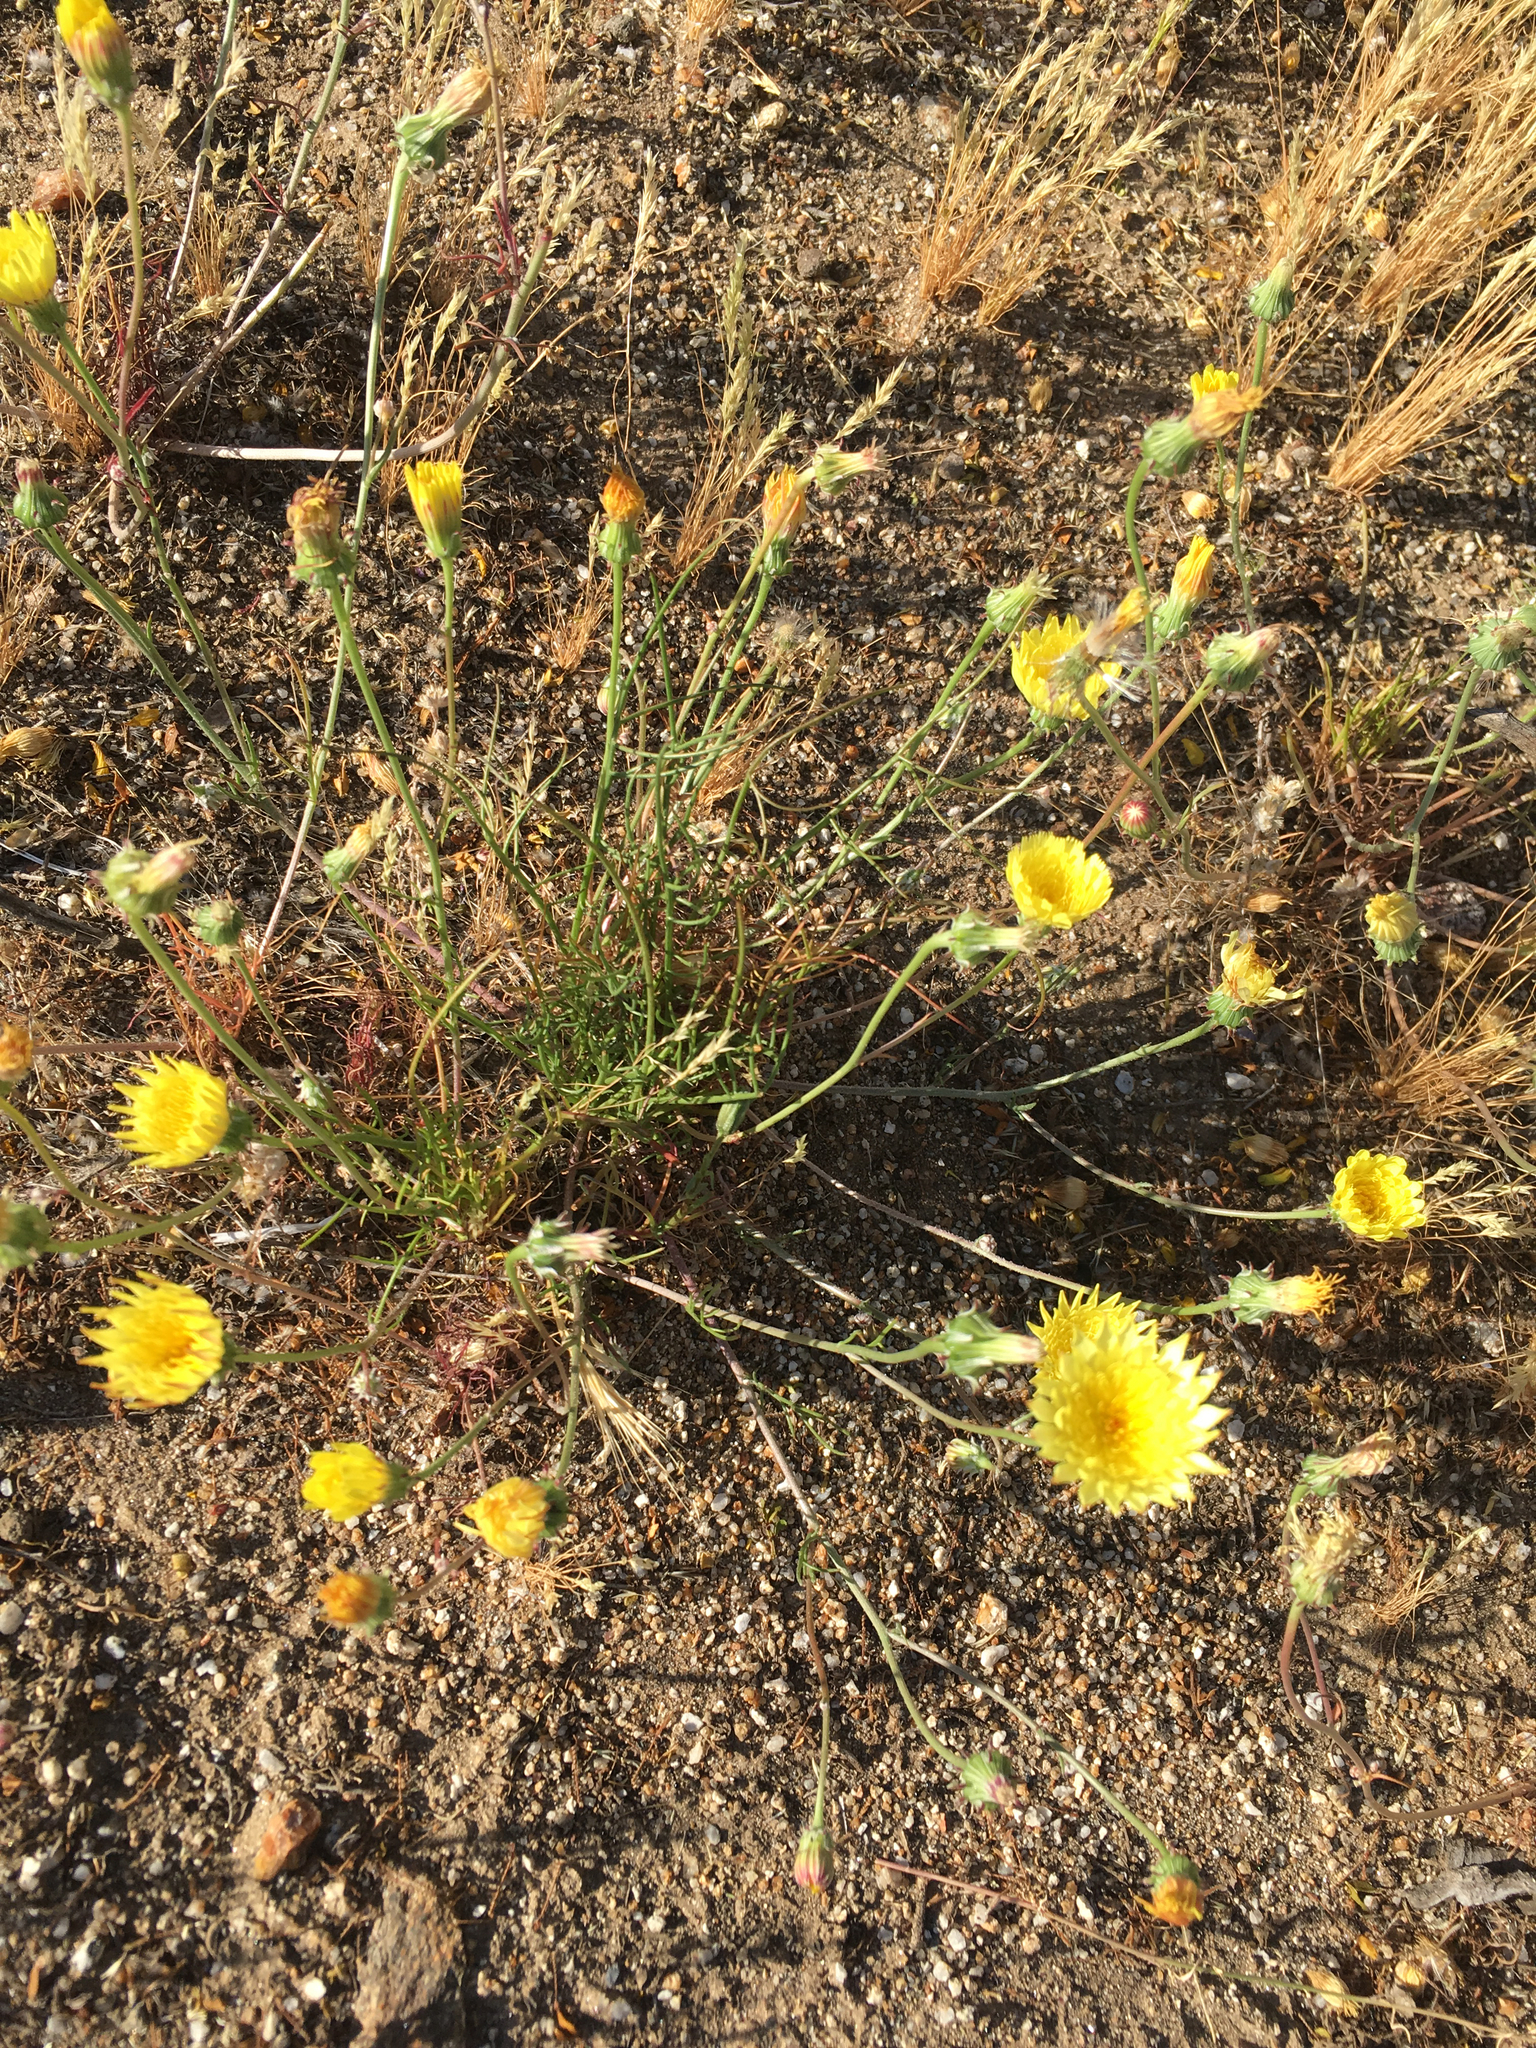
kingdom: Plantae
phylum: Tracheophyta
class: Magnoliopsida
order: Asterales
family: Asteraceae
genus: Malacothrix
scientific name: Malacothrix glabrata
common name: Smooth desert-dandelion
